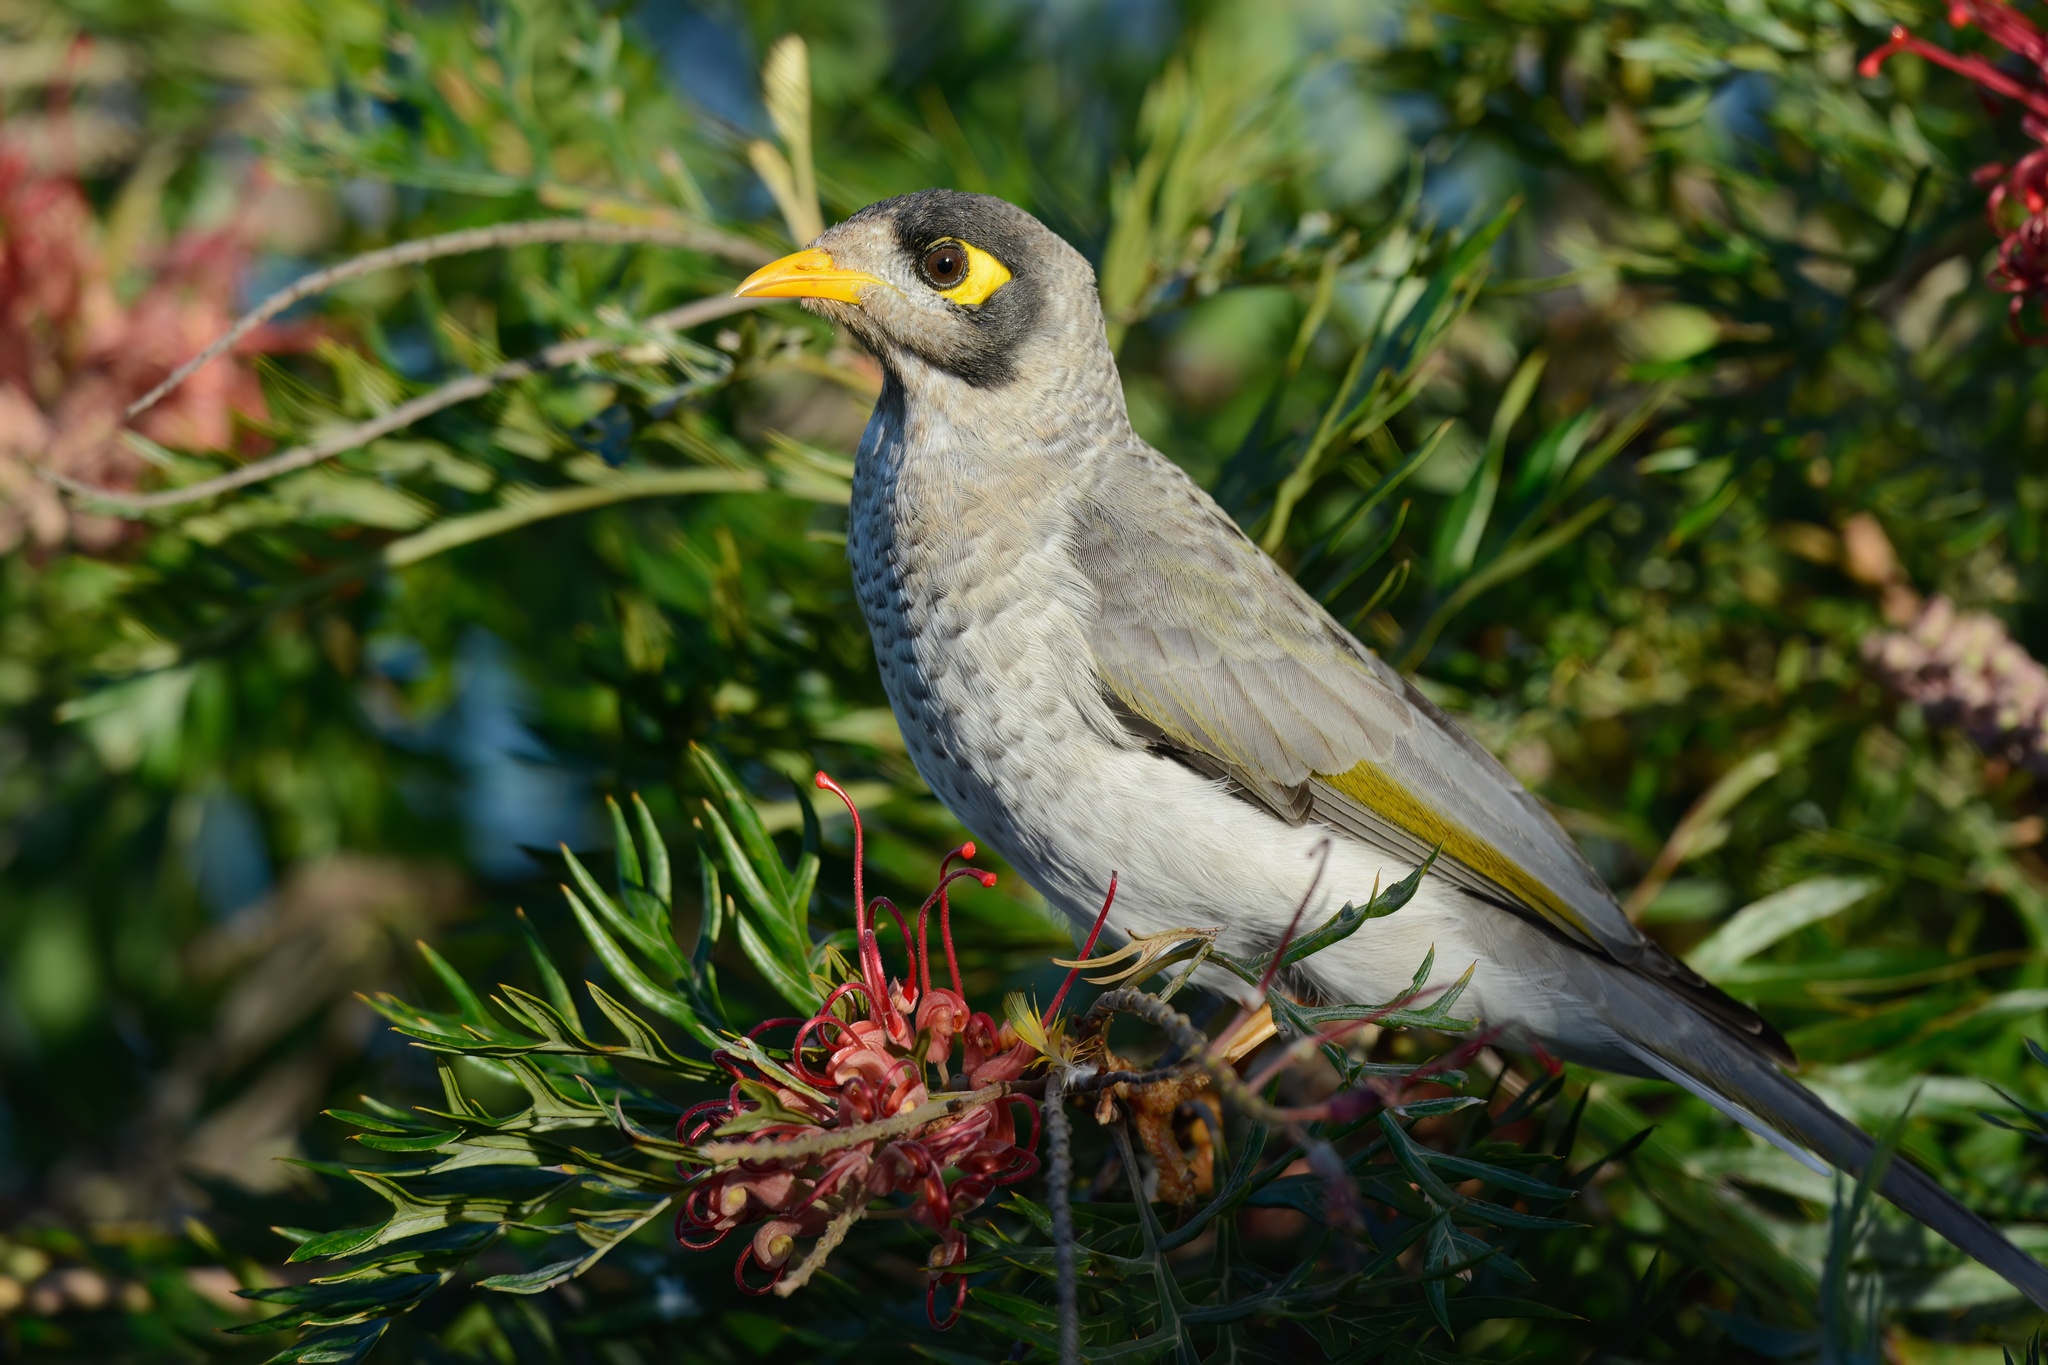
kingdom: Animalia
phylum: Chordata
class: Aves
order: Passeriformes
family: Meliphagidae
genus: Manorina
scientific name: Manorina melanocephala
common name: Noisy miner
